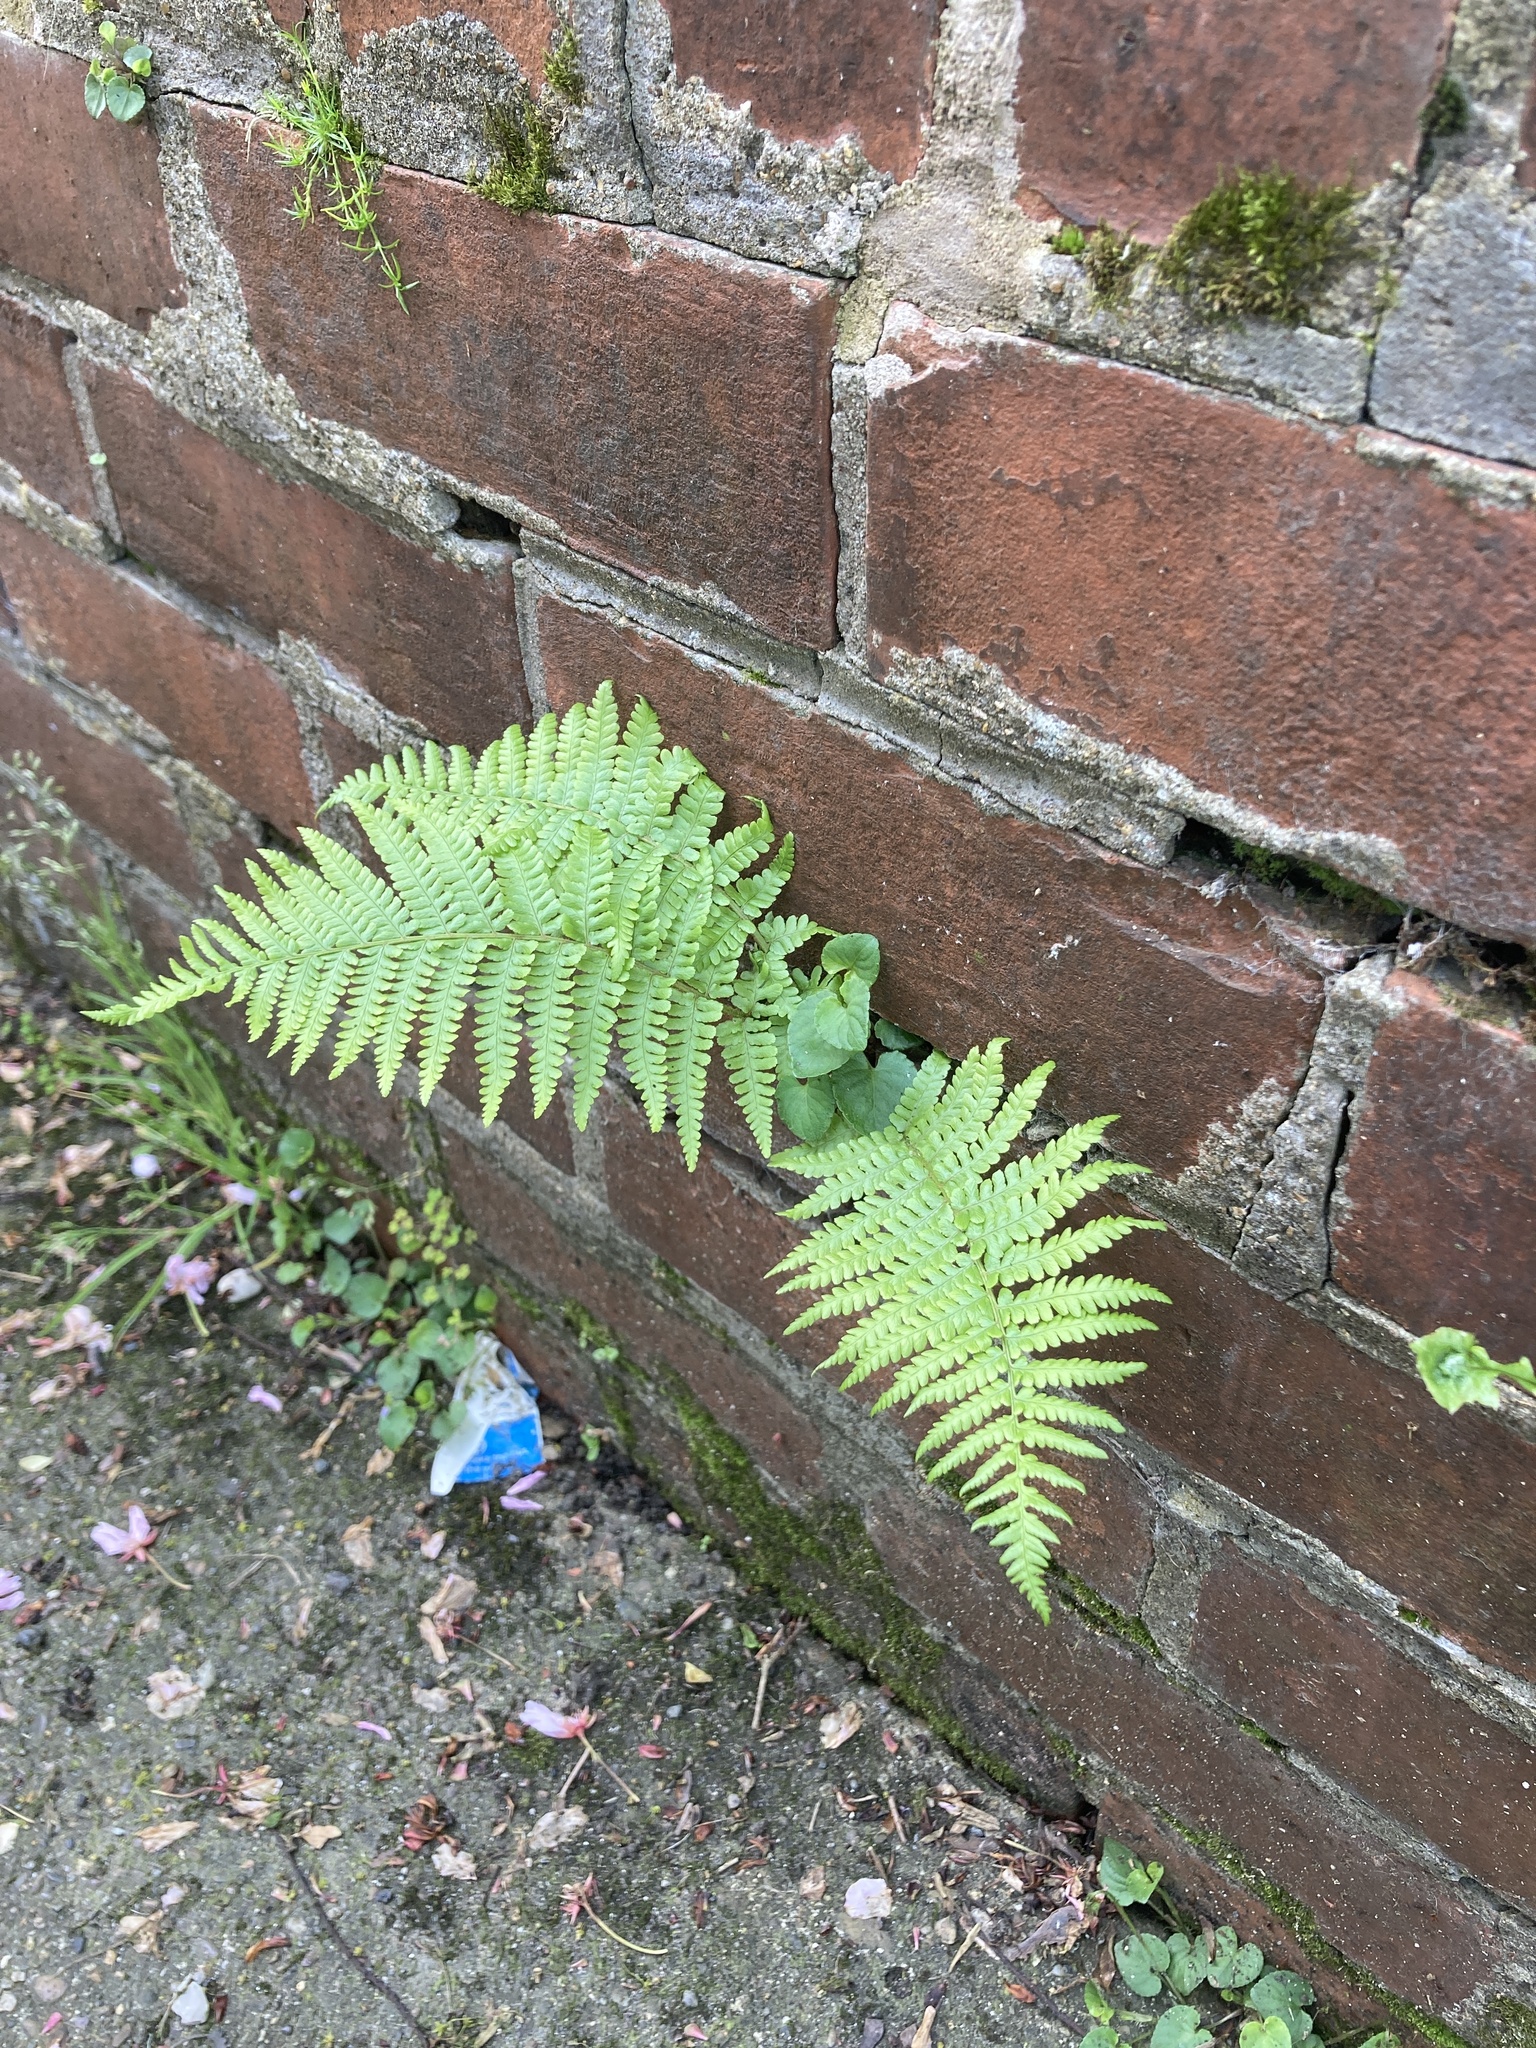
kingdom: Plantae
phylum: Tracheophyta
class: Polypodiopsida
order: Polypodiales
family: Dryopteridaceae
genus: Dryopteris
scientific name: Dryopteris filix-mas
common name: Male fern
